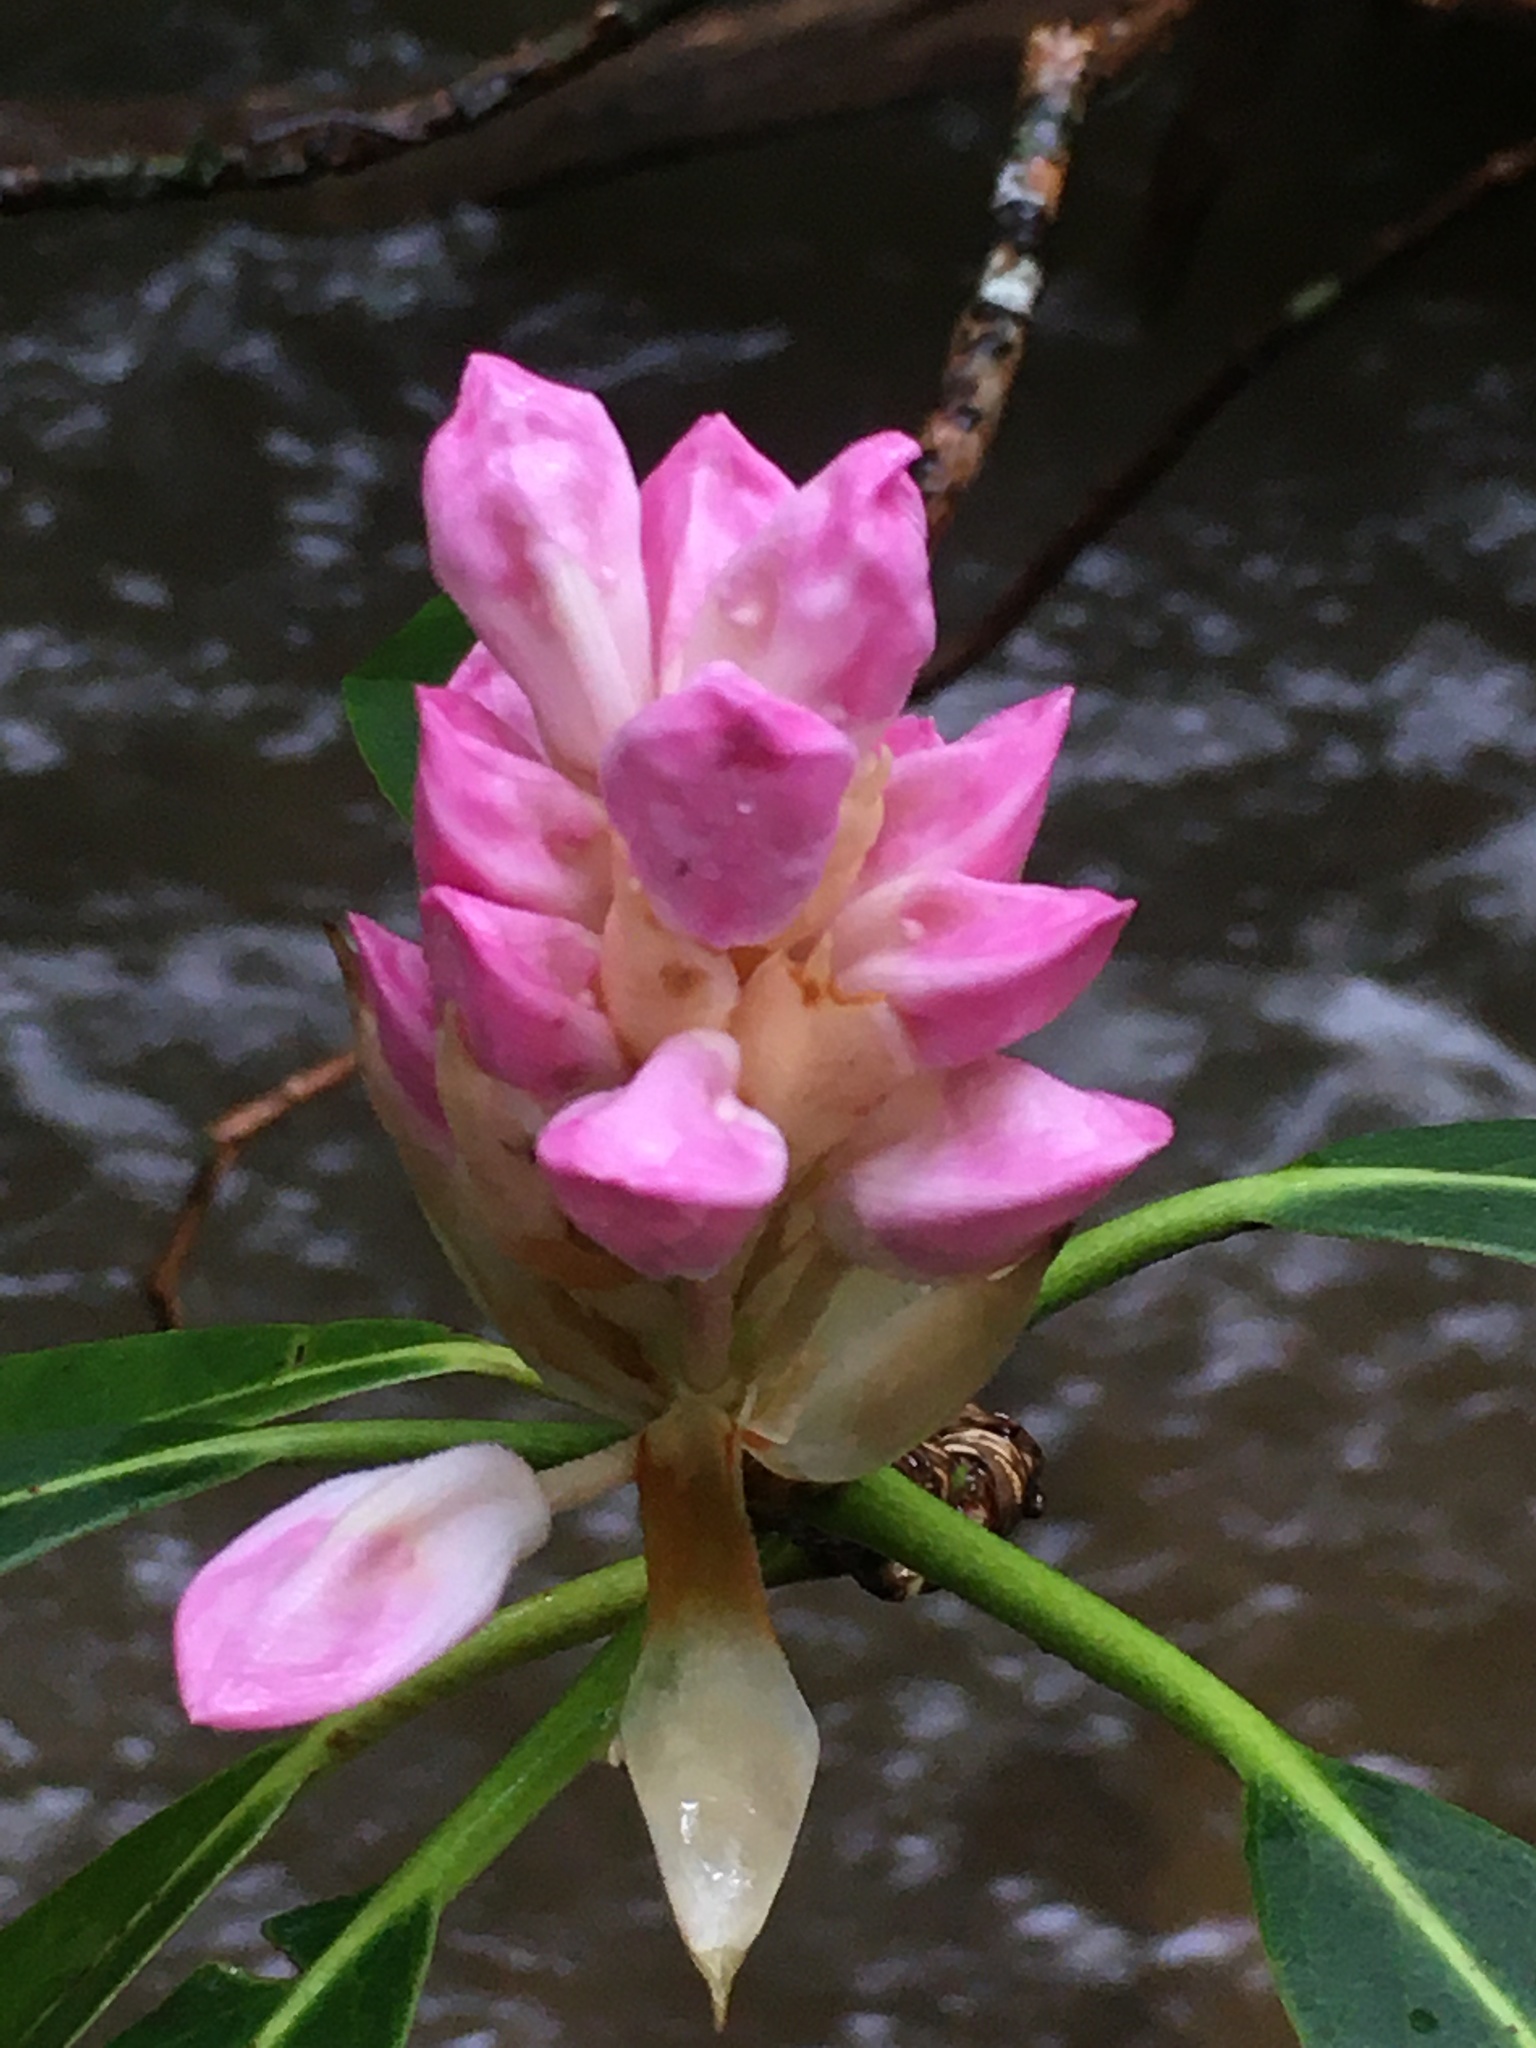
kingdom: Plantae
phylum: Tracheophyta
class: Magnoliopsida
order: Ericales
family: Ericaceae
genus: Rhododendron
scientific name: Rhododendron maximum
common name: Great rhododendron
